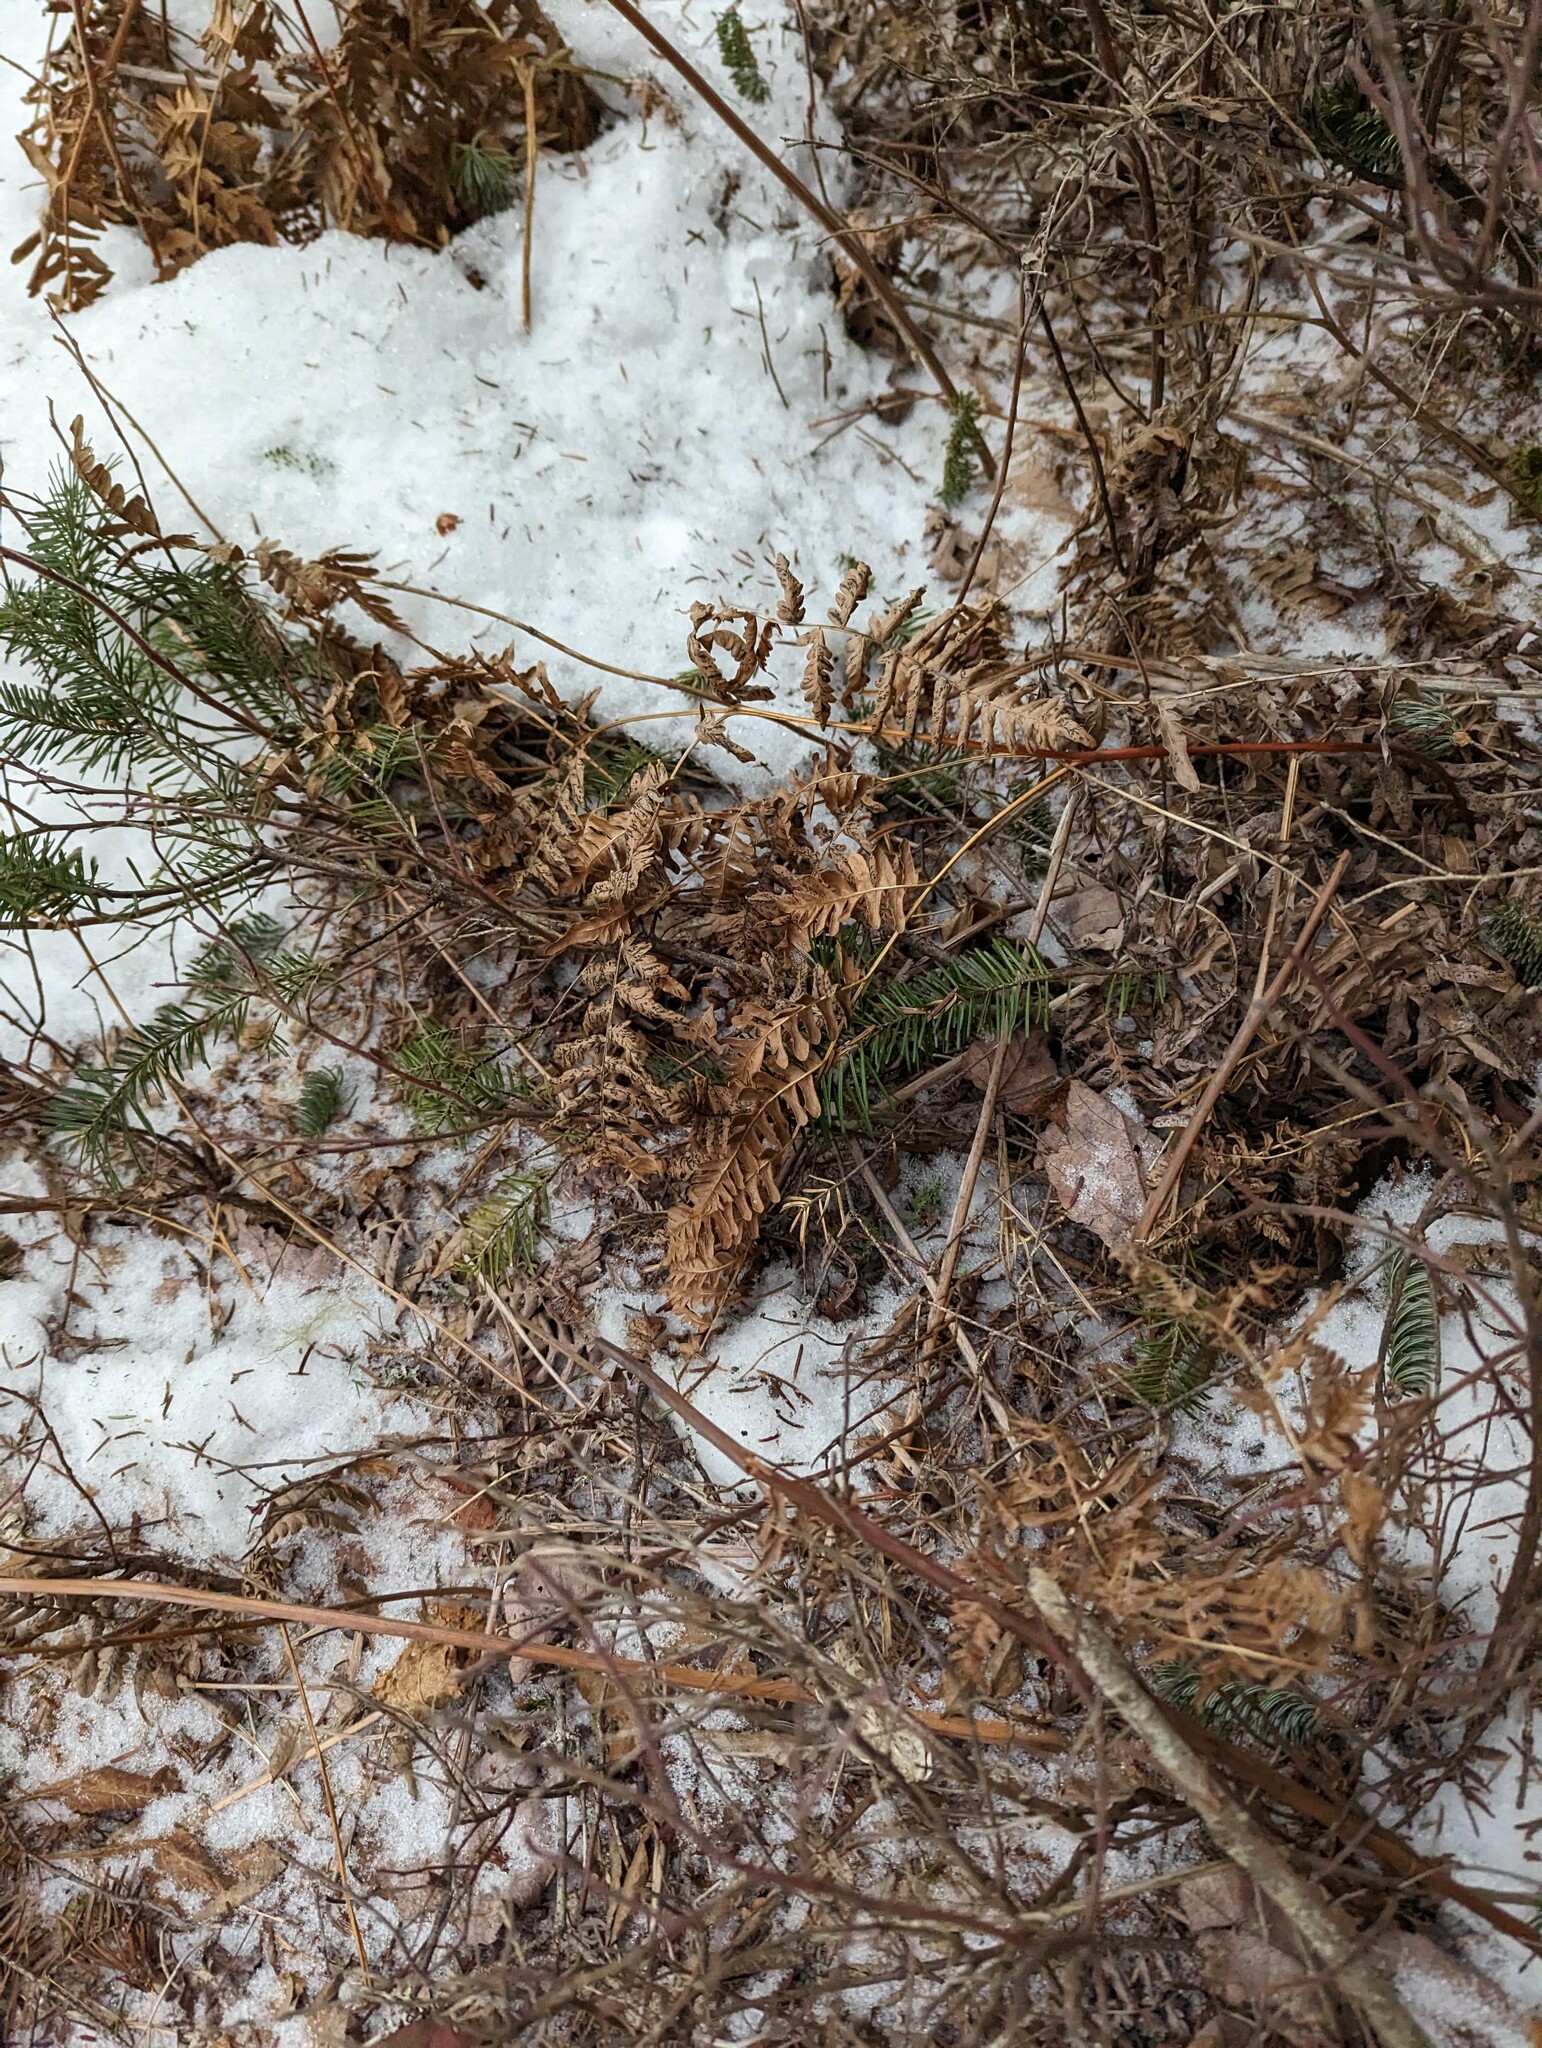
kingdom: Plantae
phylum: Tracheophyta
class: Polypodiopsida
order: Polypodiales
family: Dennstaedtiaceae
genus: Pteridium
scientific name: Pteridium aquilinum
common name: Bracken
